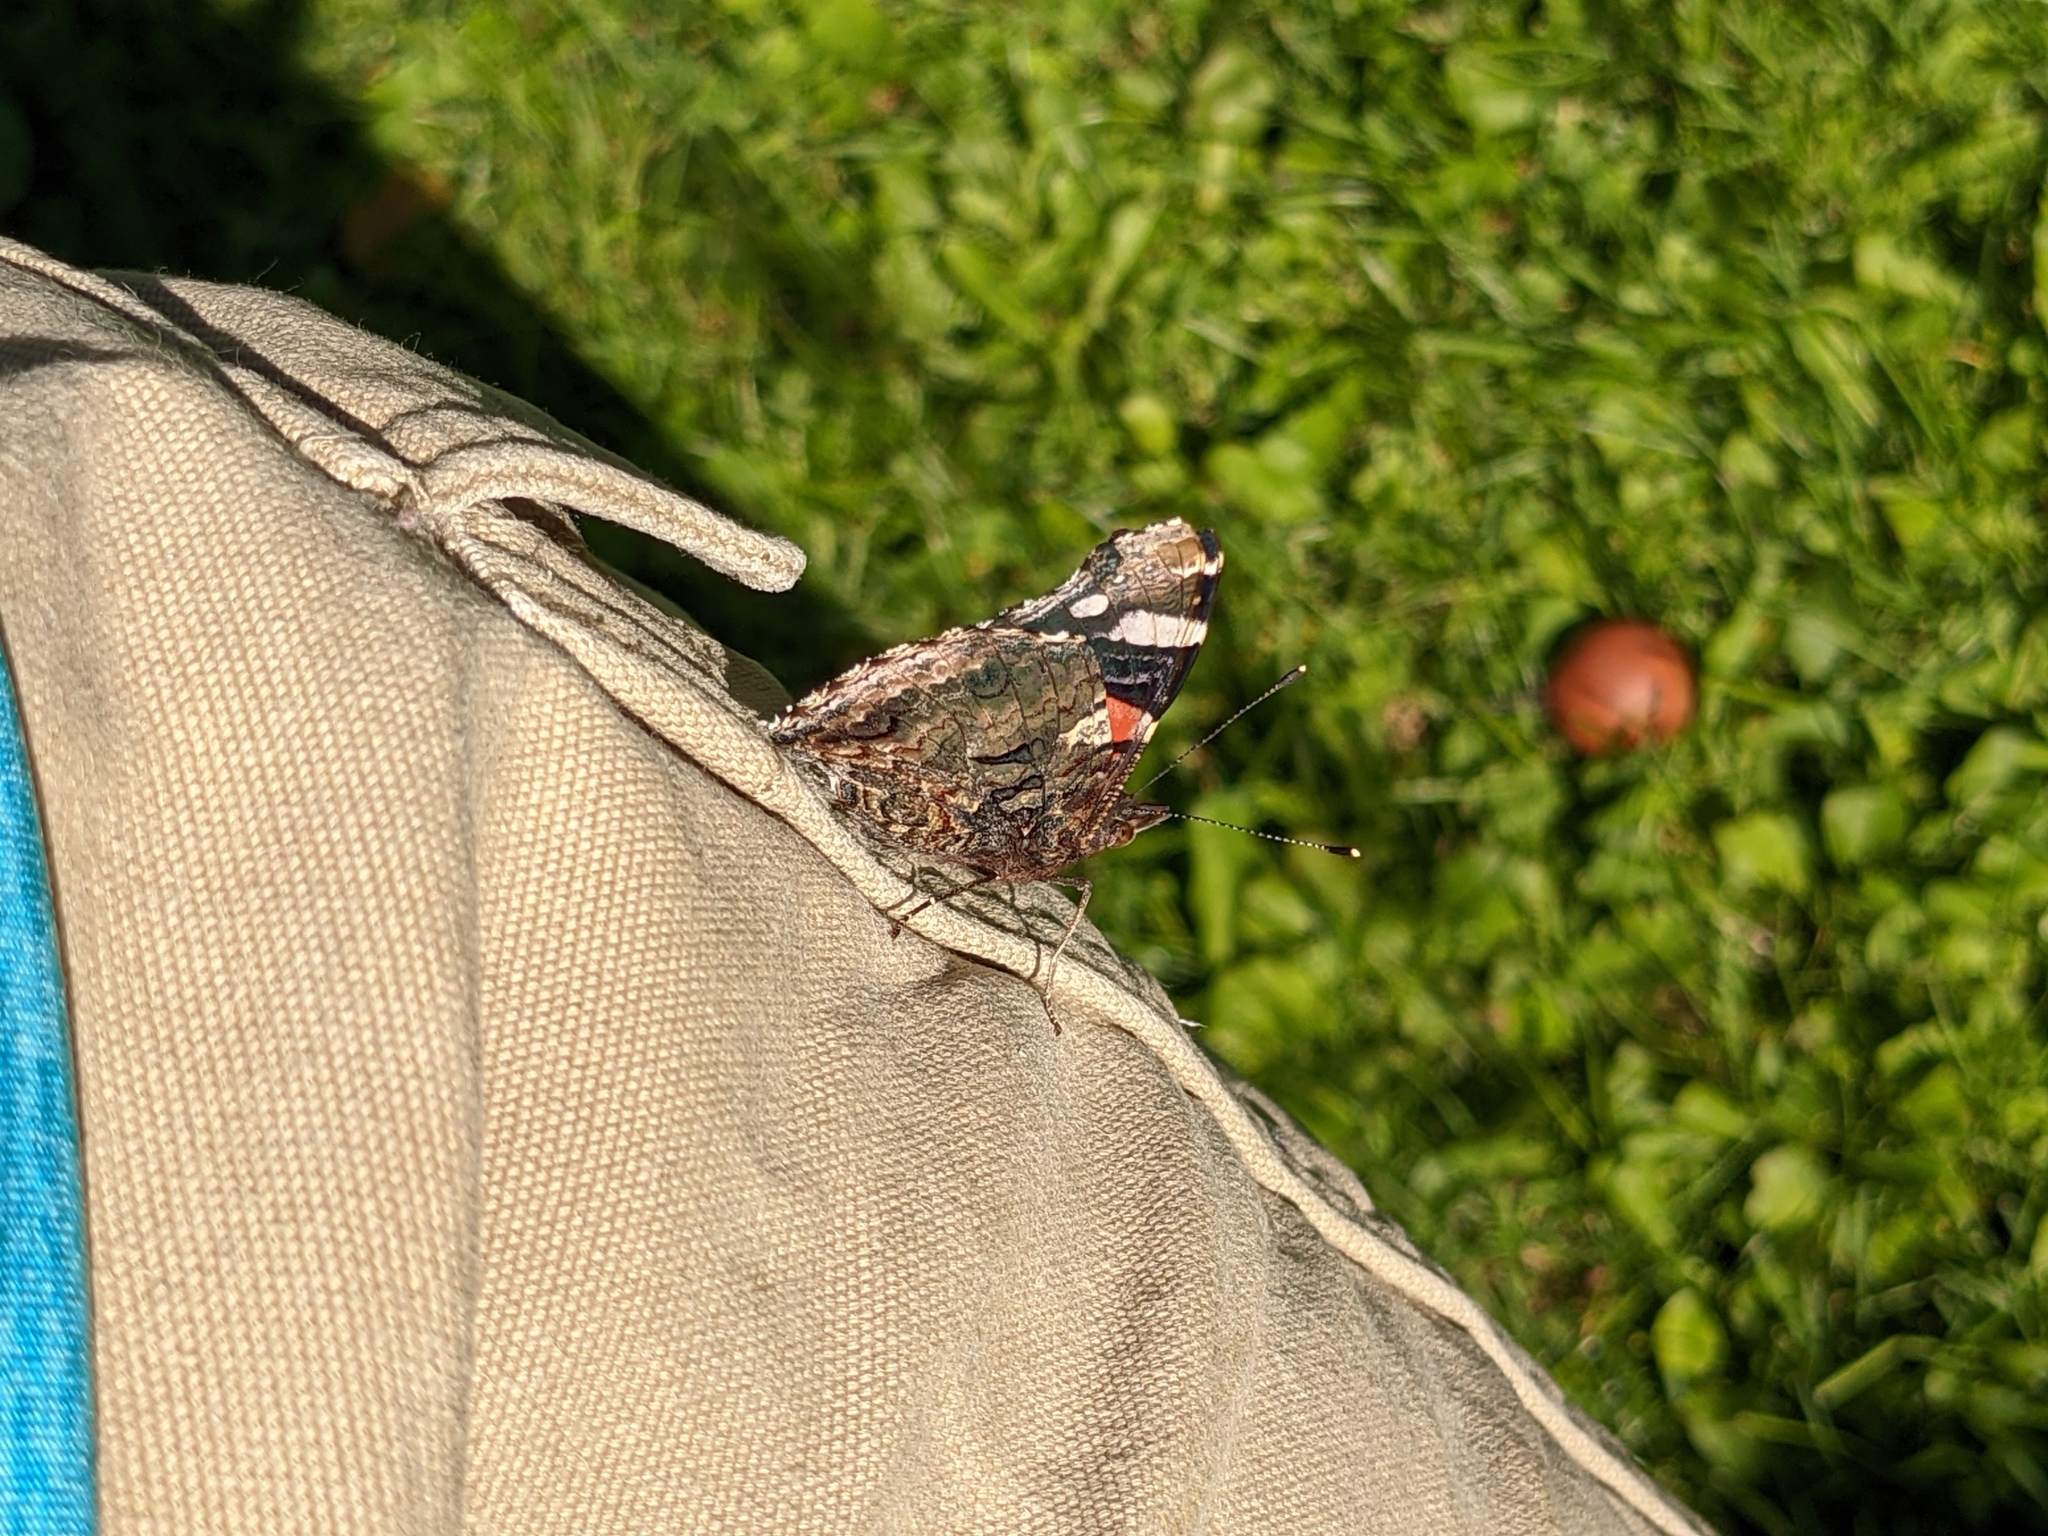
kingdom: Animalia
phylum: Arthropoda
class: Insecta
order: Lepidoptera
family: Nymphalidae
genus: Vanessa
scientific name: Vanessa atalanta
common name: Red admiral
